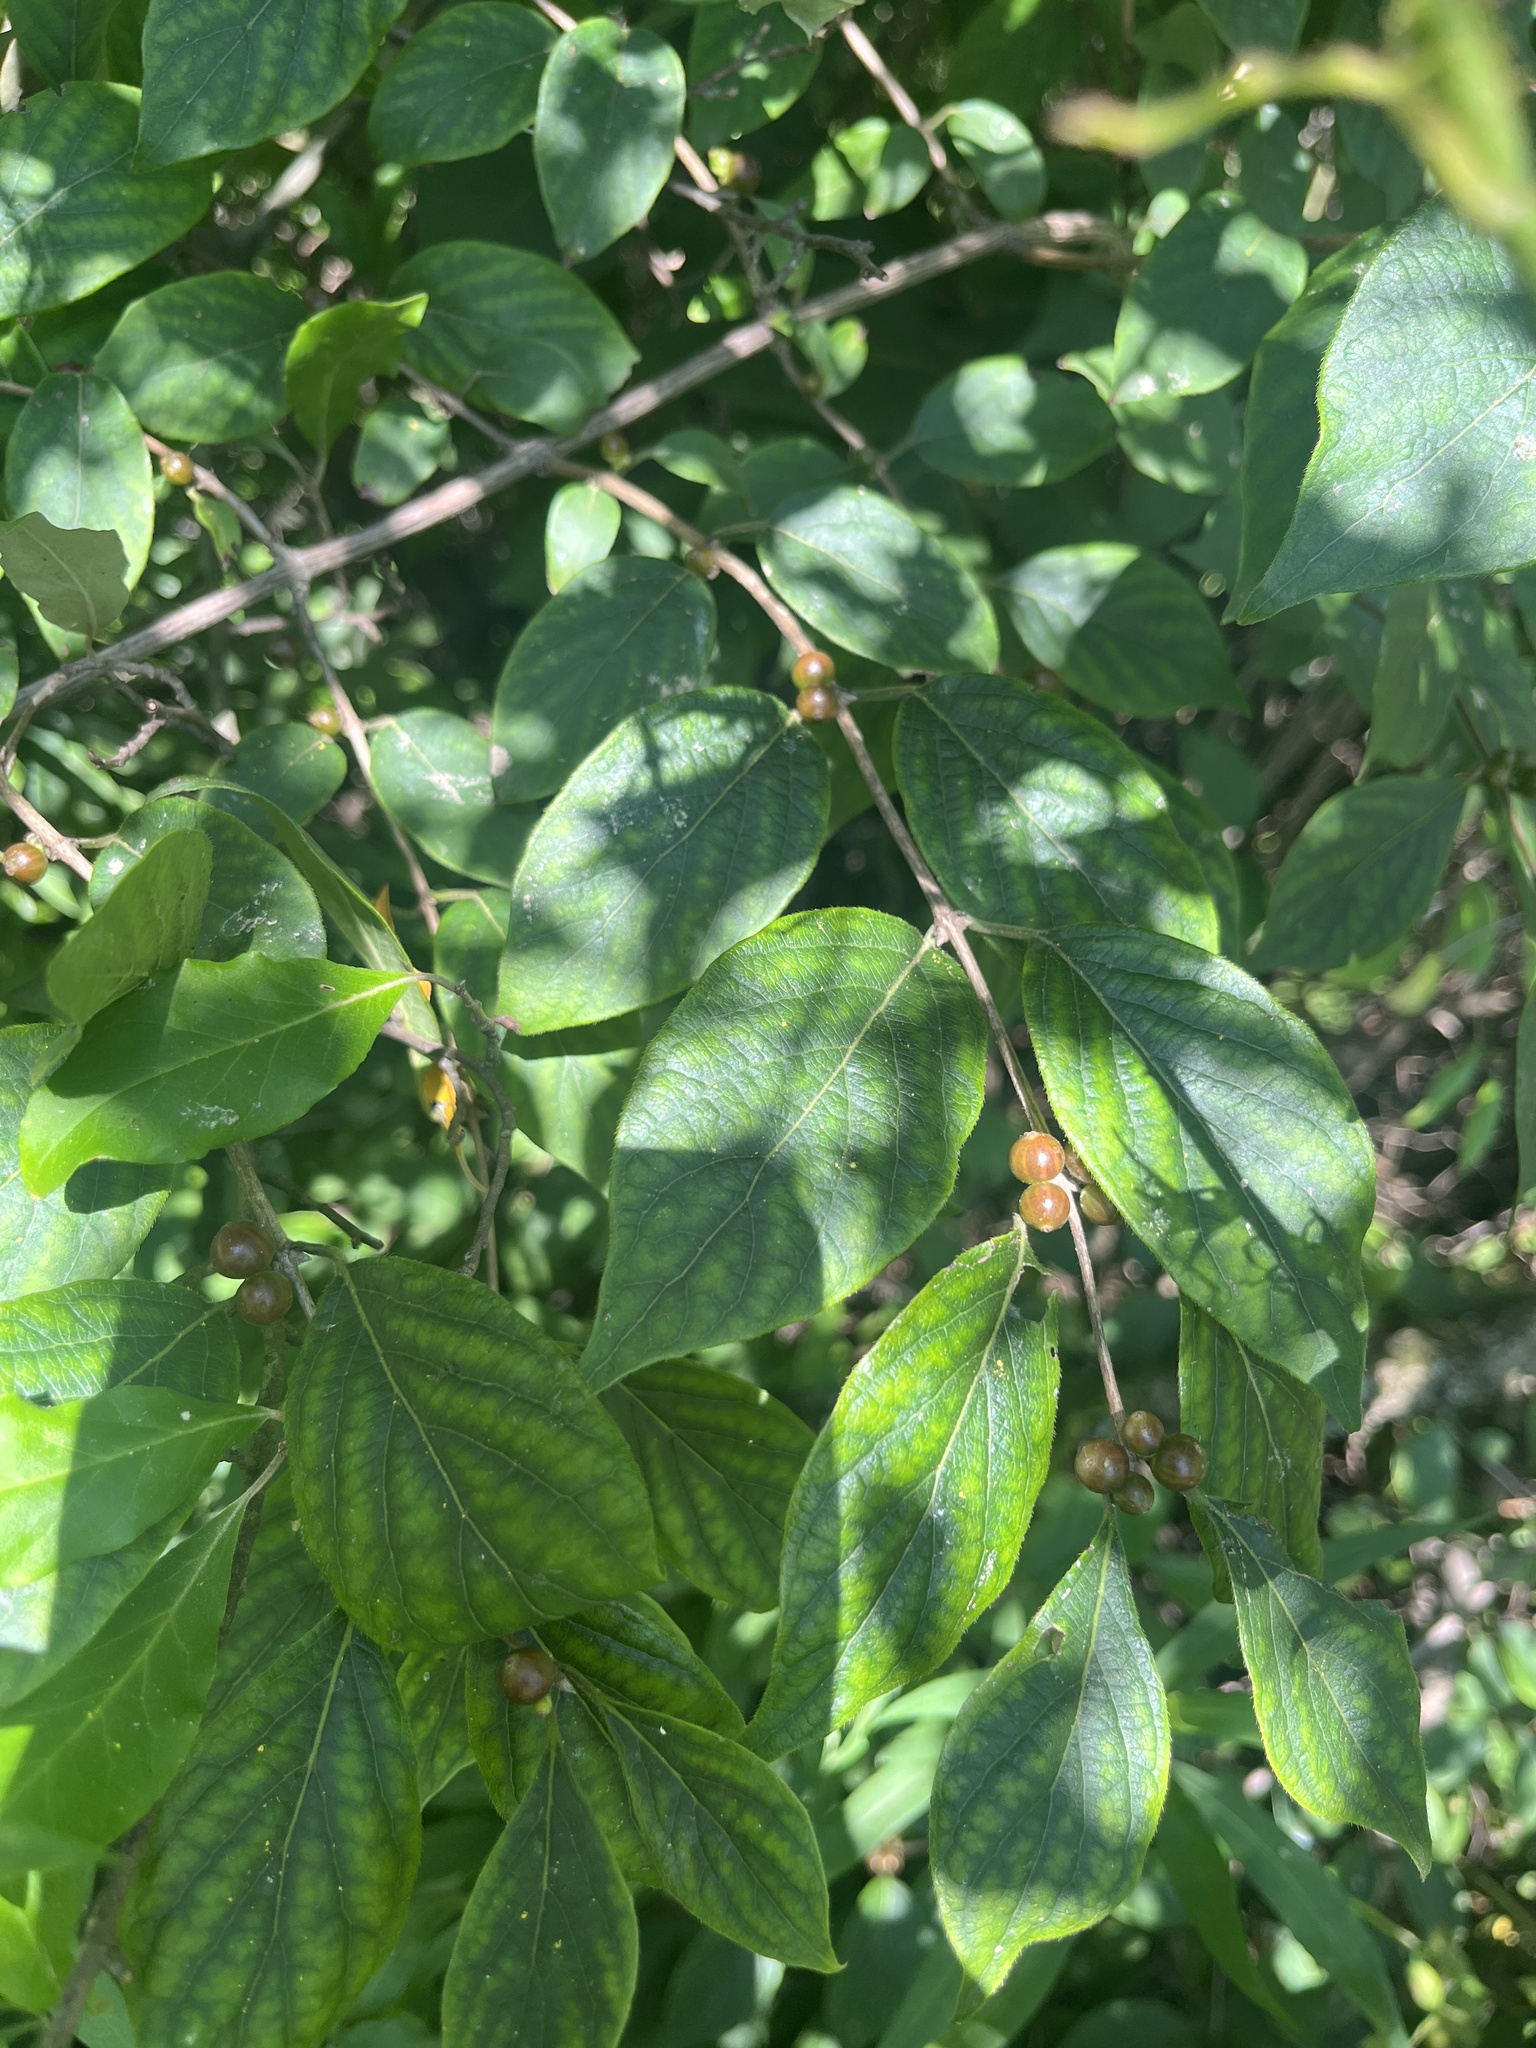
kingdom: Plantae
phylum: Tracheophyta
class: Magnoliopsida
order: Dipsacales
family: Caprifoliaceae
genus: Lonicera
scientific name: Lonicera maackii
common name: Amur honeysuckle
